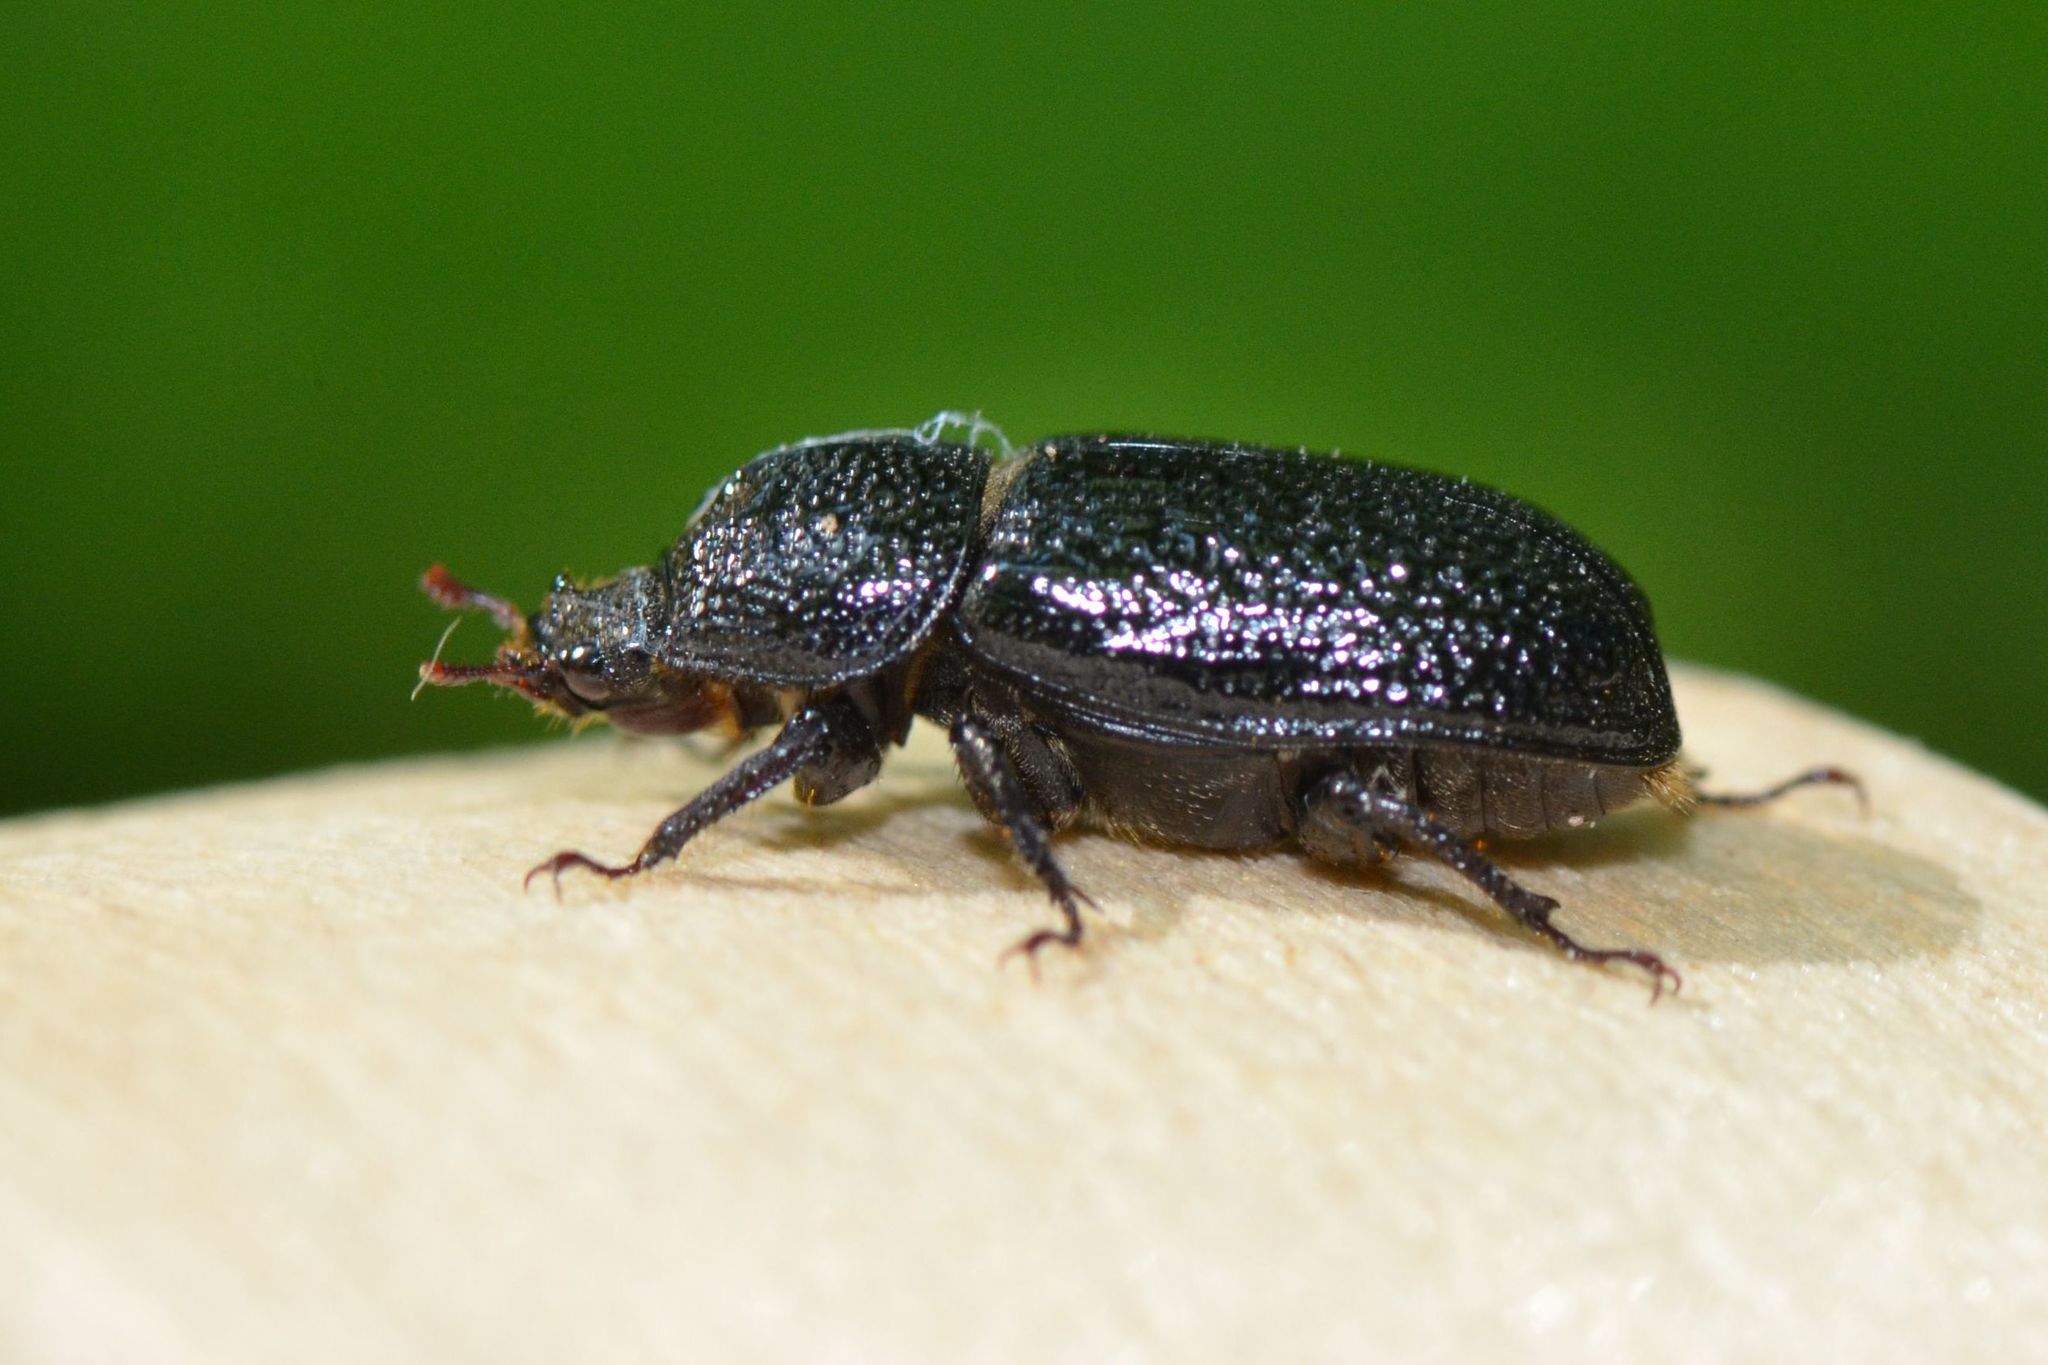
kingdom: Animalia
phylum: Arthropoda
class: Insecta
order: Coleoptera
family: Lucanidae
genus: Sinodendron
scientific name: Sinodendron cylindricum
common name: Rhinoceros beetle
